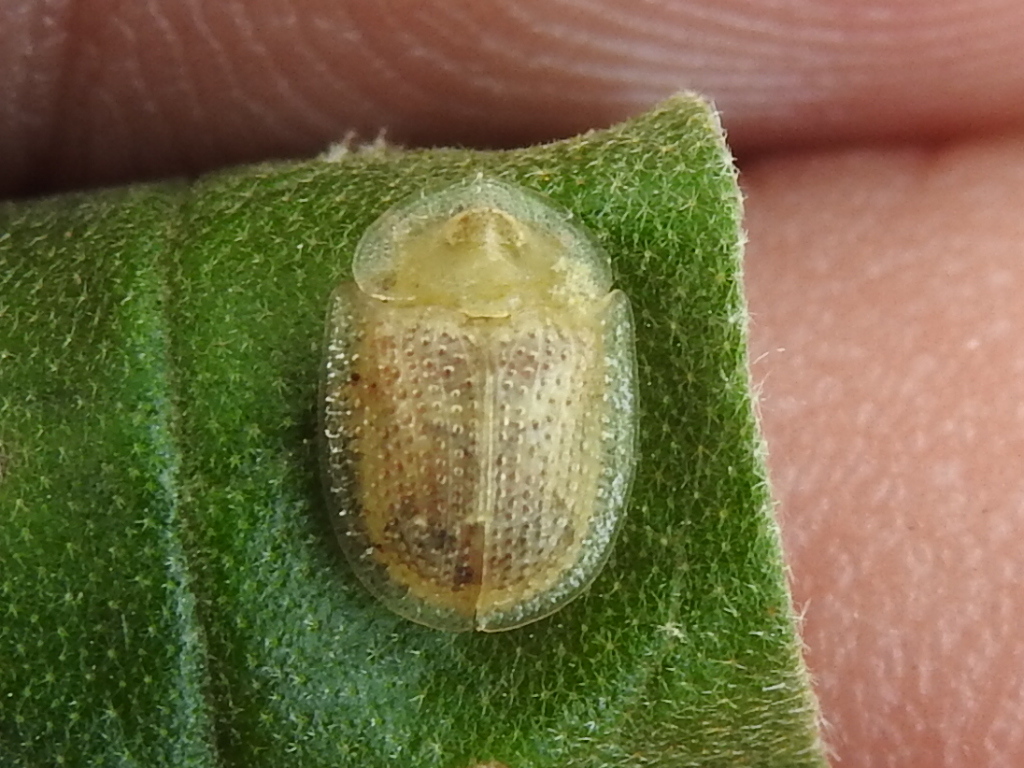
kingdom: Animalia
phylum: Arthropoda
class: Insecta
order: Coleoptera
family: Chrysomelidae
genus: Gratiana
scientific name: Gratiana pallidula
